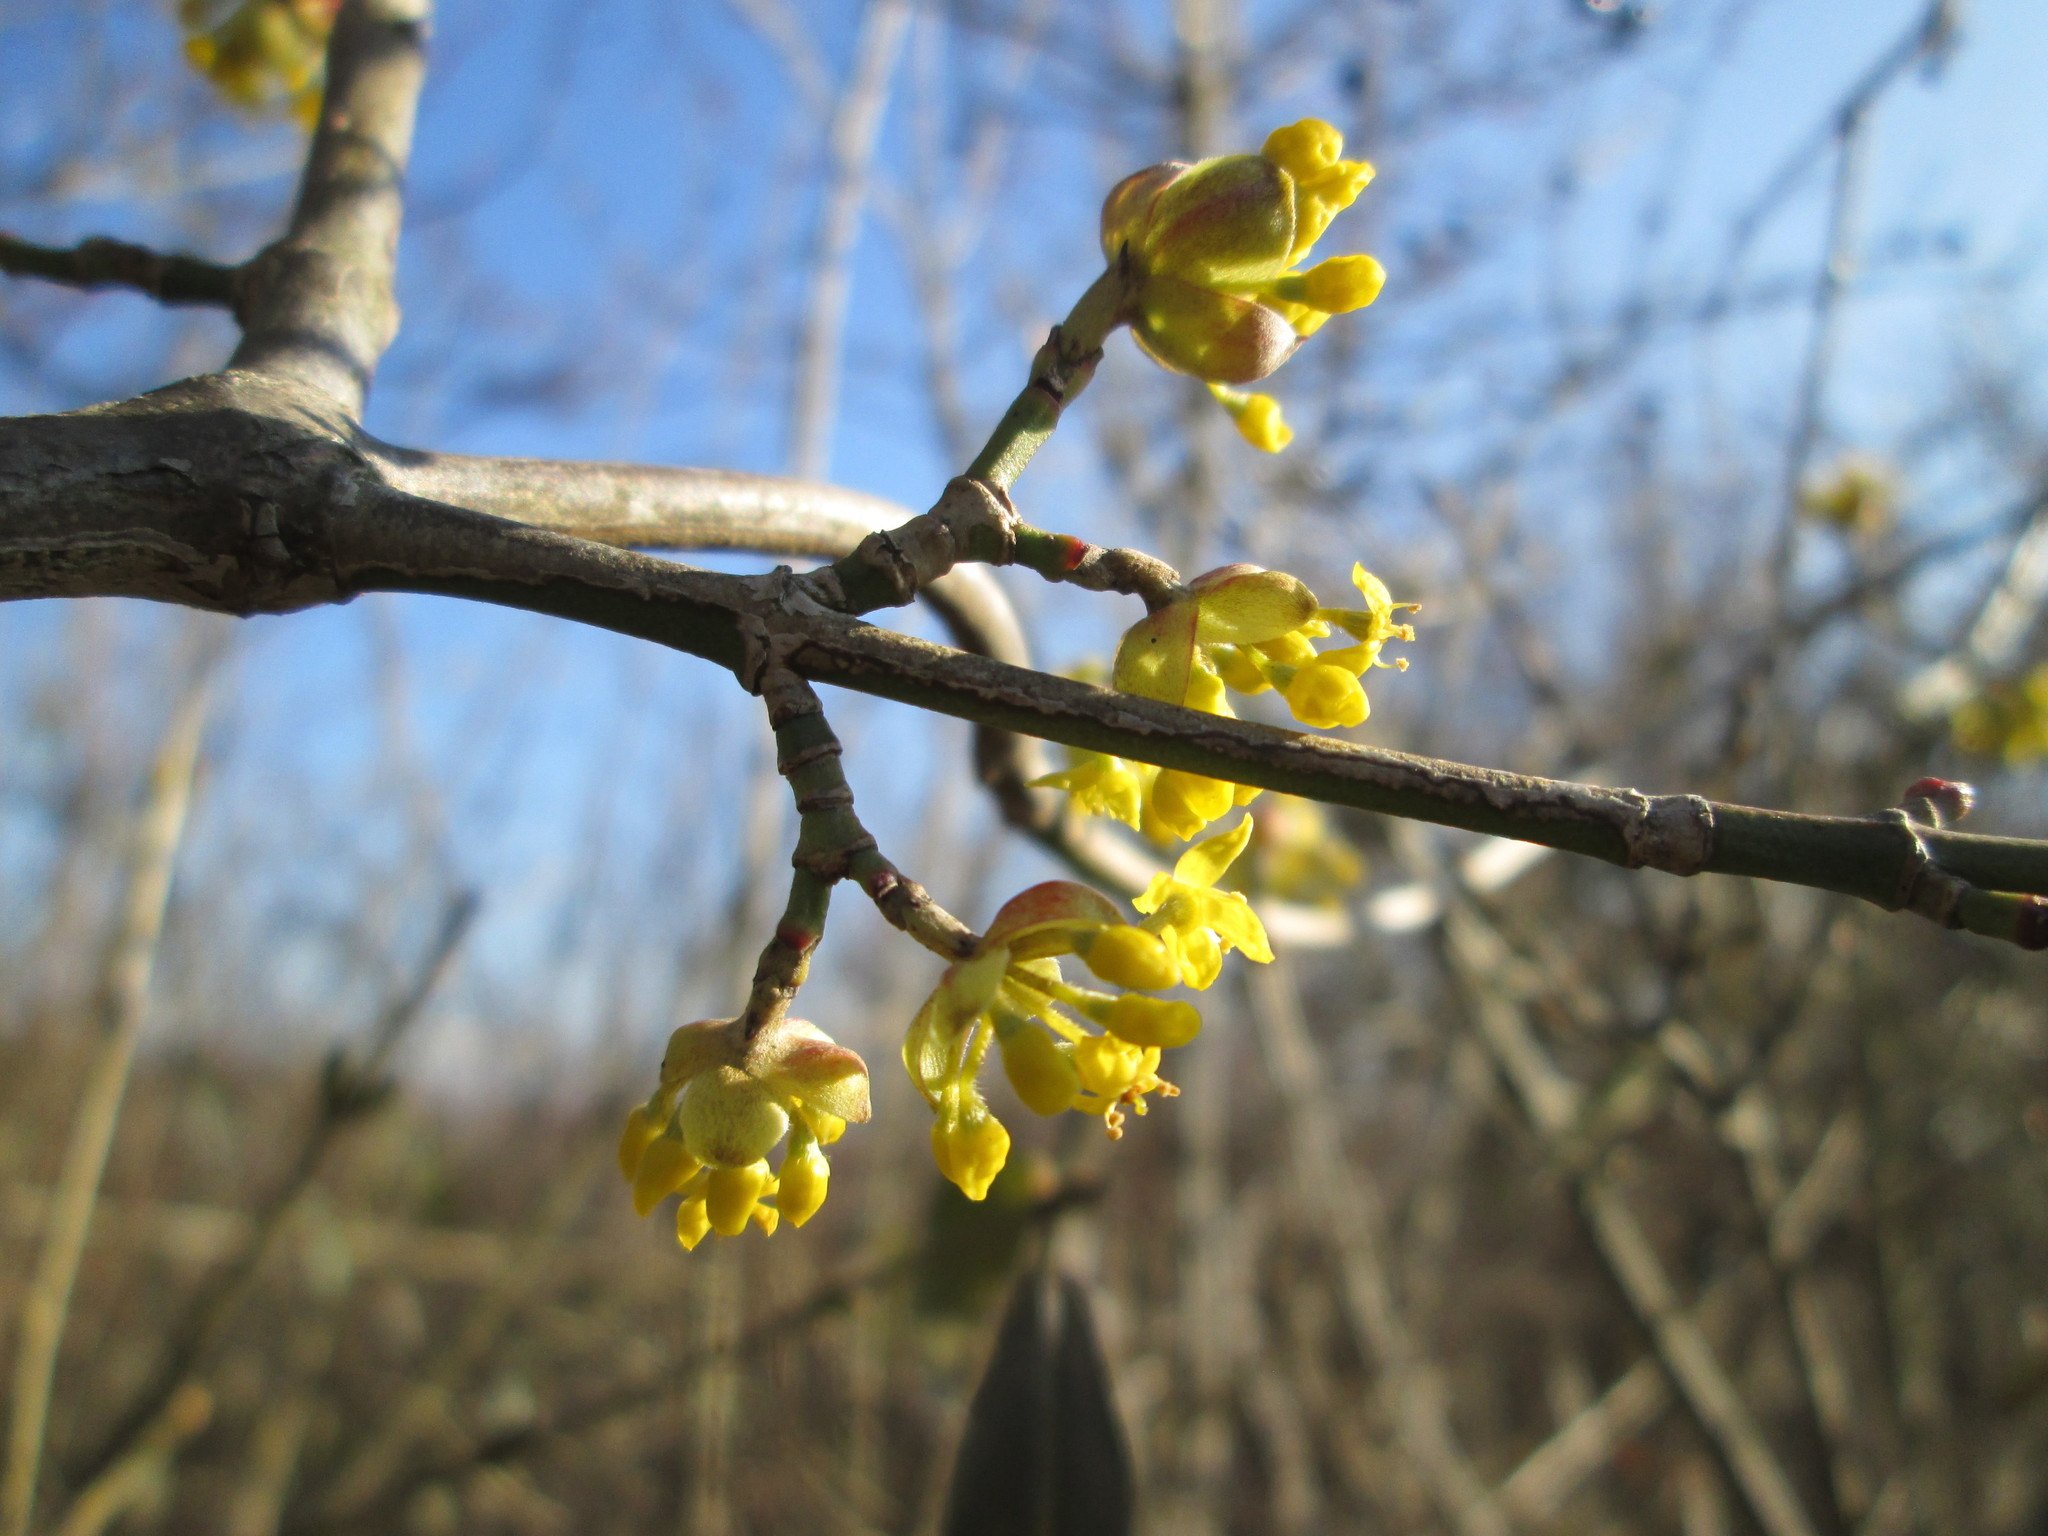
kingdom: Plantae
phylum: Tracheophyta
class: Magnoliopsida
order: Cornales
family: Cornaceae
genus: Cornus
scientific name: Cornus mas
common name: Cornelian-cherry
